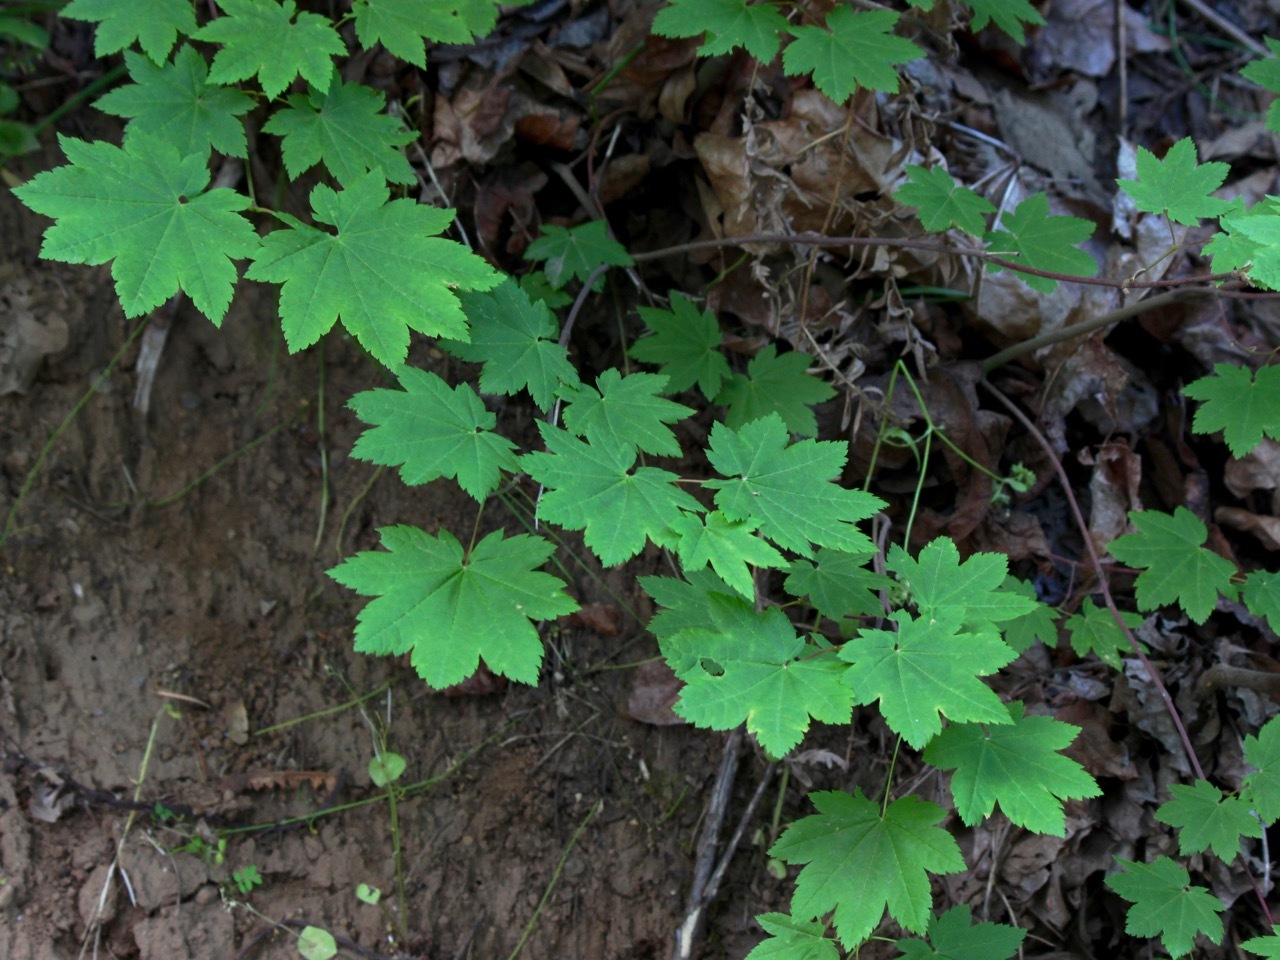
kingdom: Plantae
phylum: Tracheophyta
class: Magnoliopsida
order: Sapindales
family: Sapindaceae
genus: Acer
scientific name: Acer circinatum
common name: Vine maple
